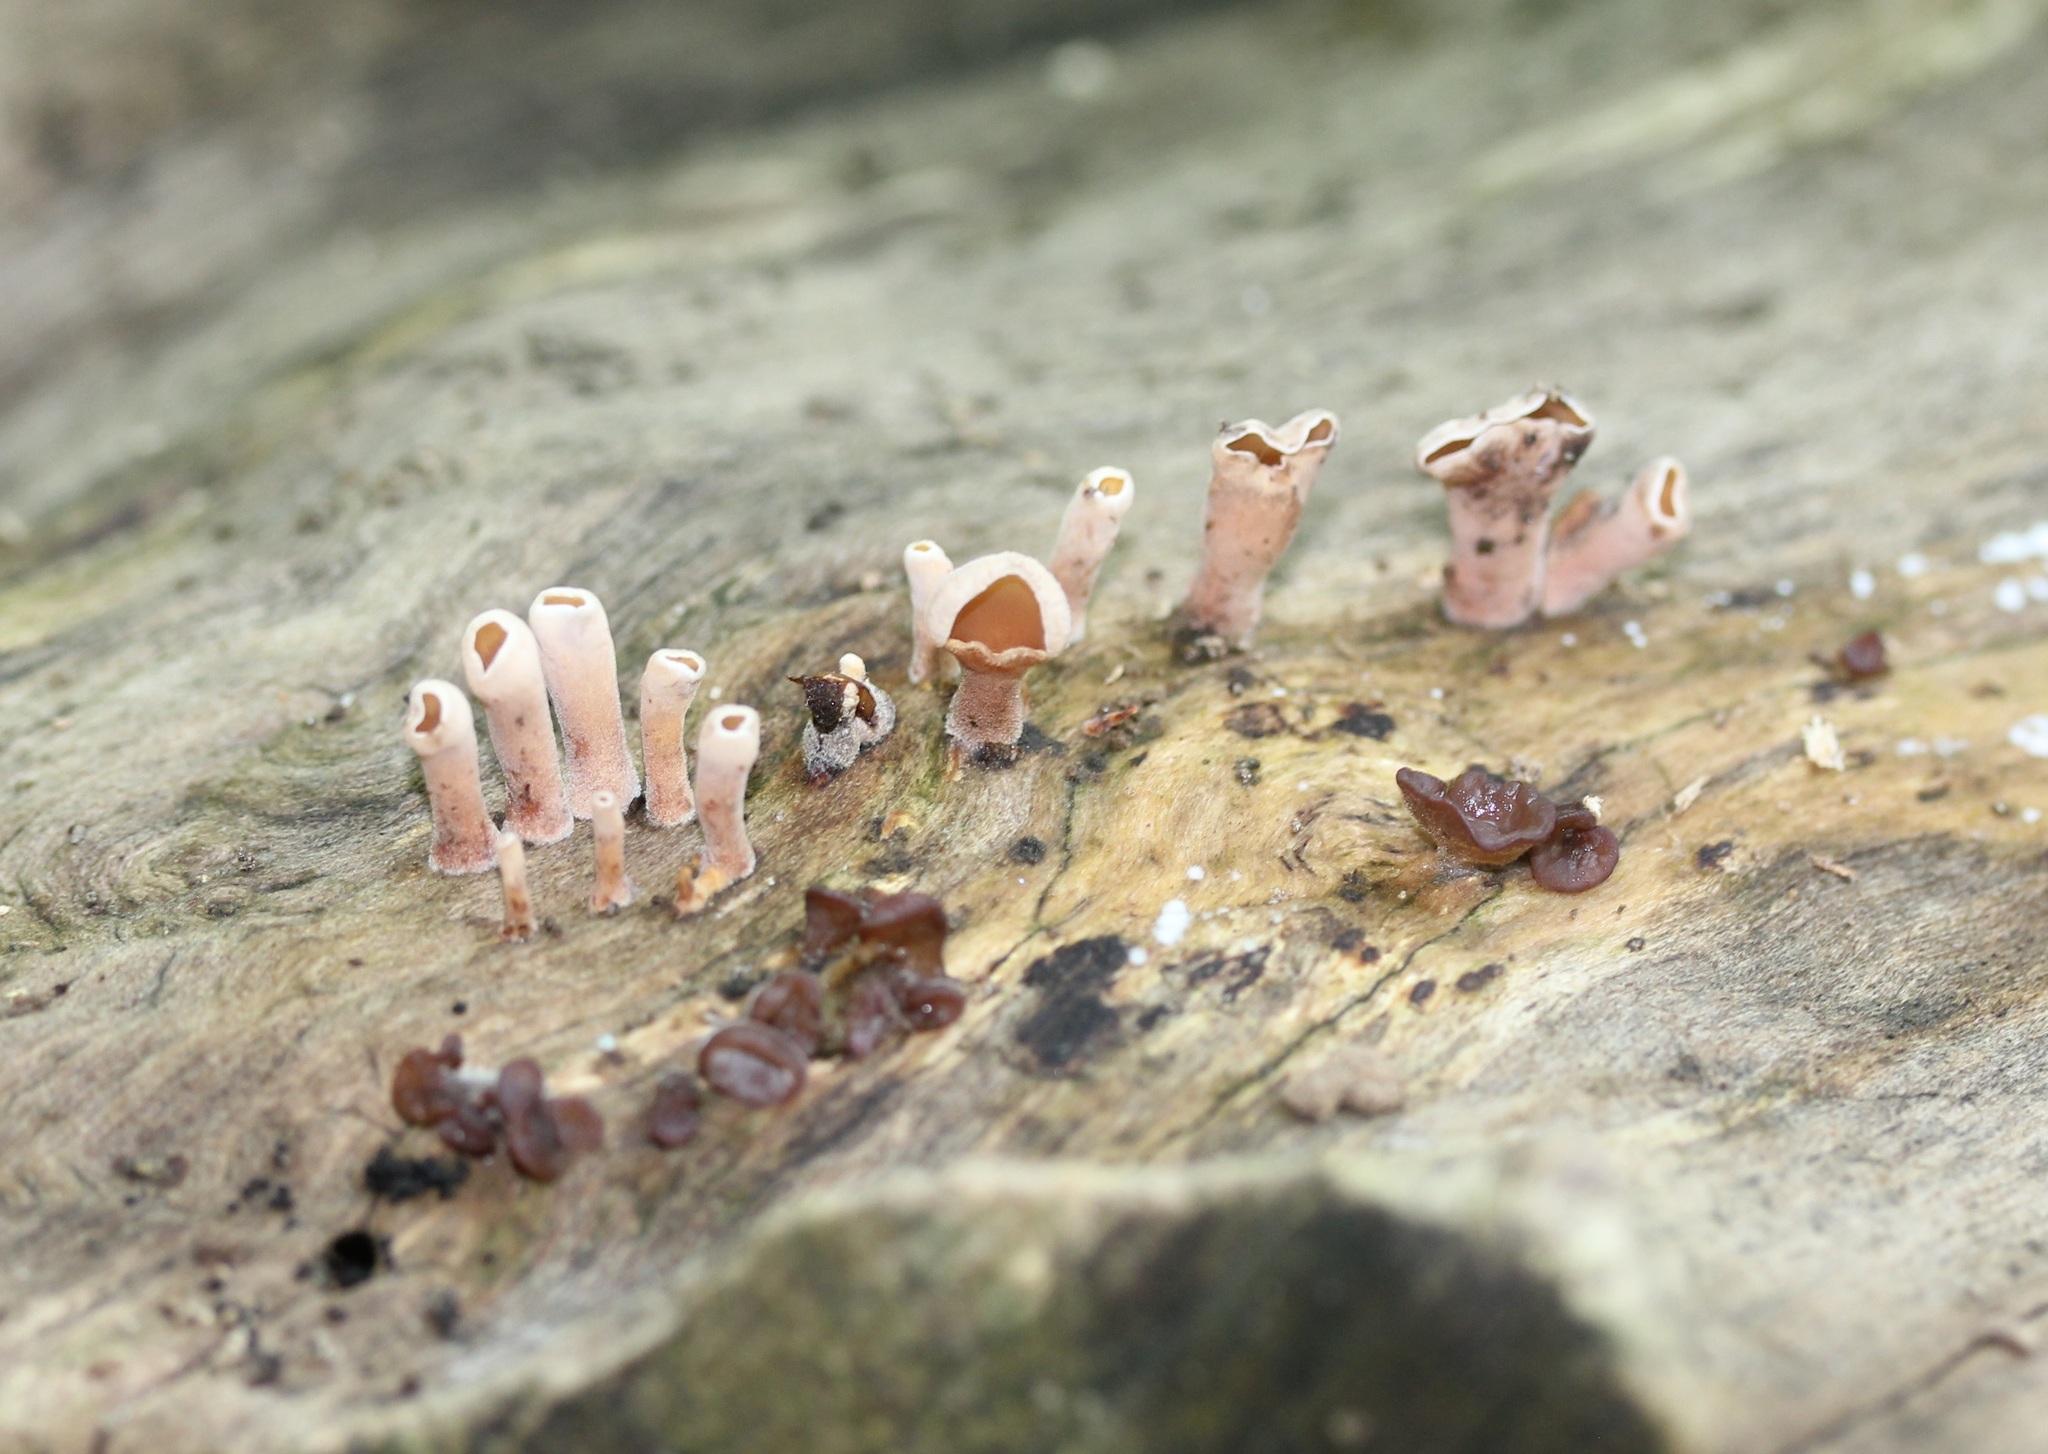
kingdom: Fungi
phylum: Basidiomycota
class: Dacrymycetes
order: Dacrymycetales
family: Dacrymycetaceae
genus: Dacryopinax
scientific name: Dacryopinax elegans
